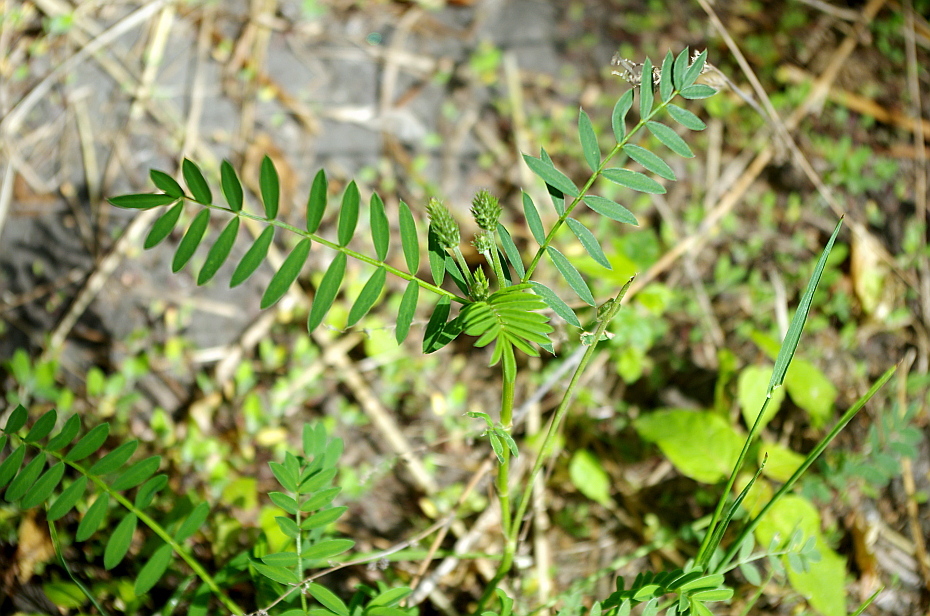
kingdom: Plantae
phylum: Tracheophyta
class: Magnoliopsida
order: Fabales
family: Fabaceae
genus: Onobrychis
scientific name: Onobrychis viciifolia
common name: Sainfoin
